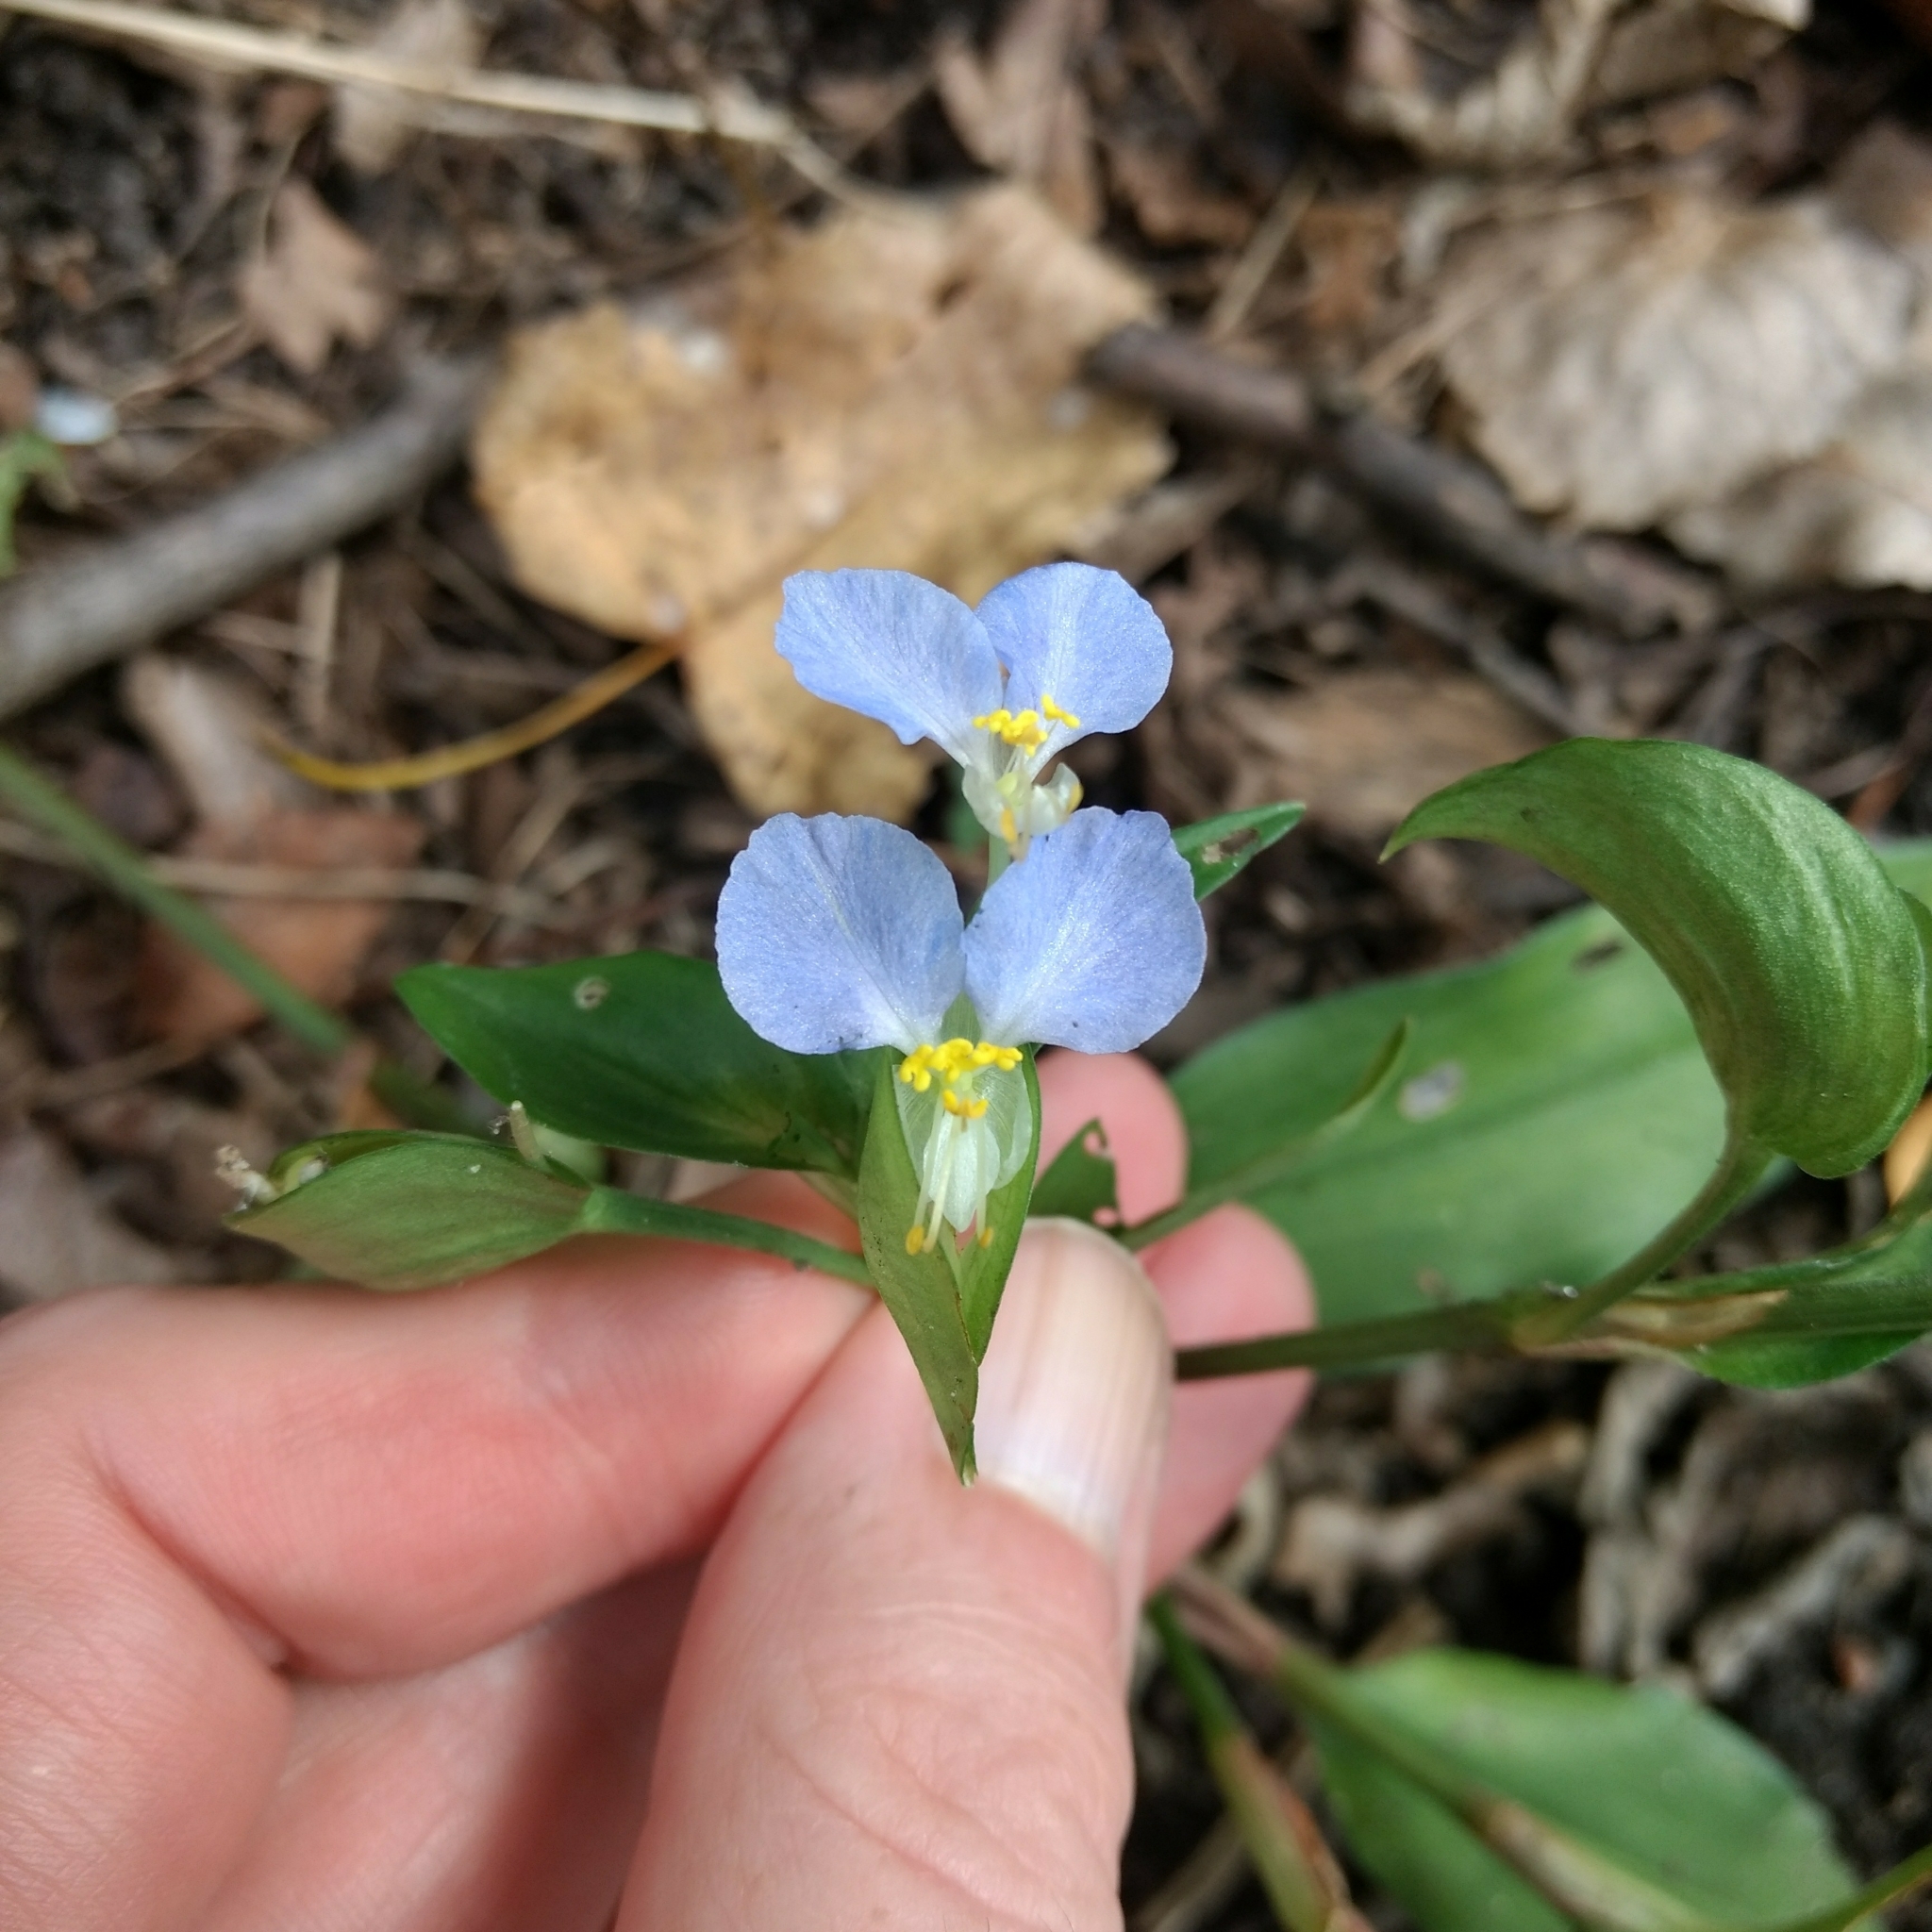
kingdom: Plantae
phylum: Tracheophyta
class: Liliopsida
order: Commelinales
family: Commelinaceae
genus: Commelina
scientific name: Commelina communis
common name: Asiatic dayflower
